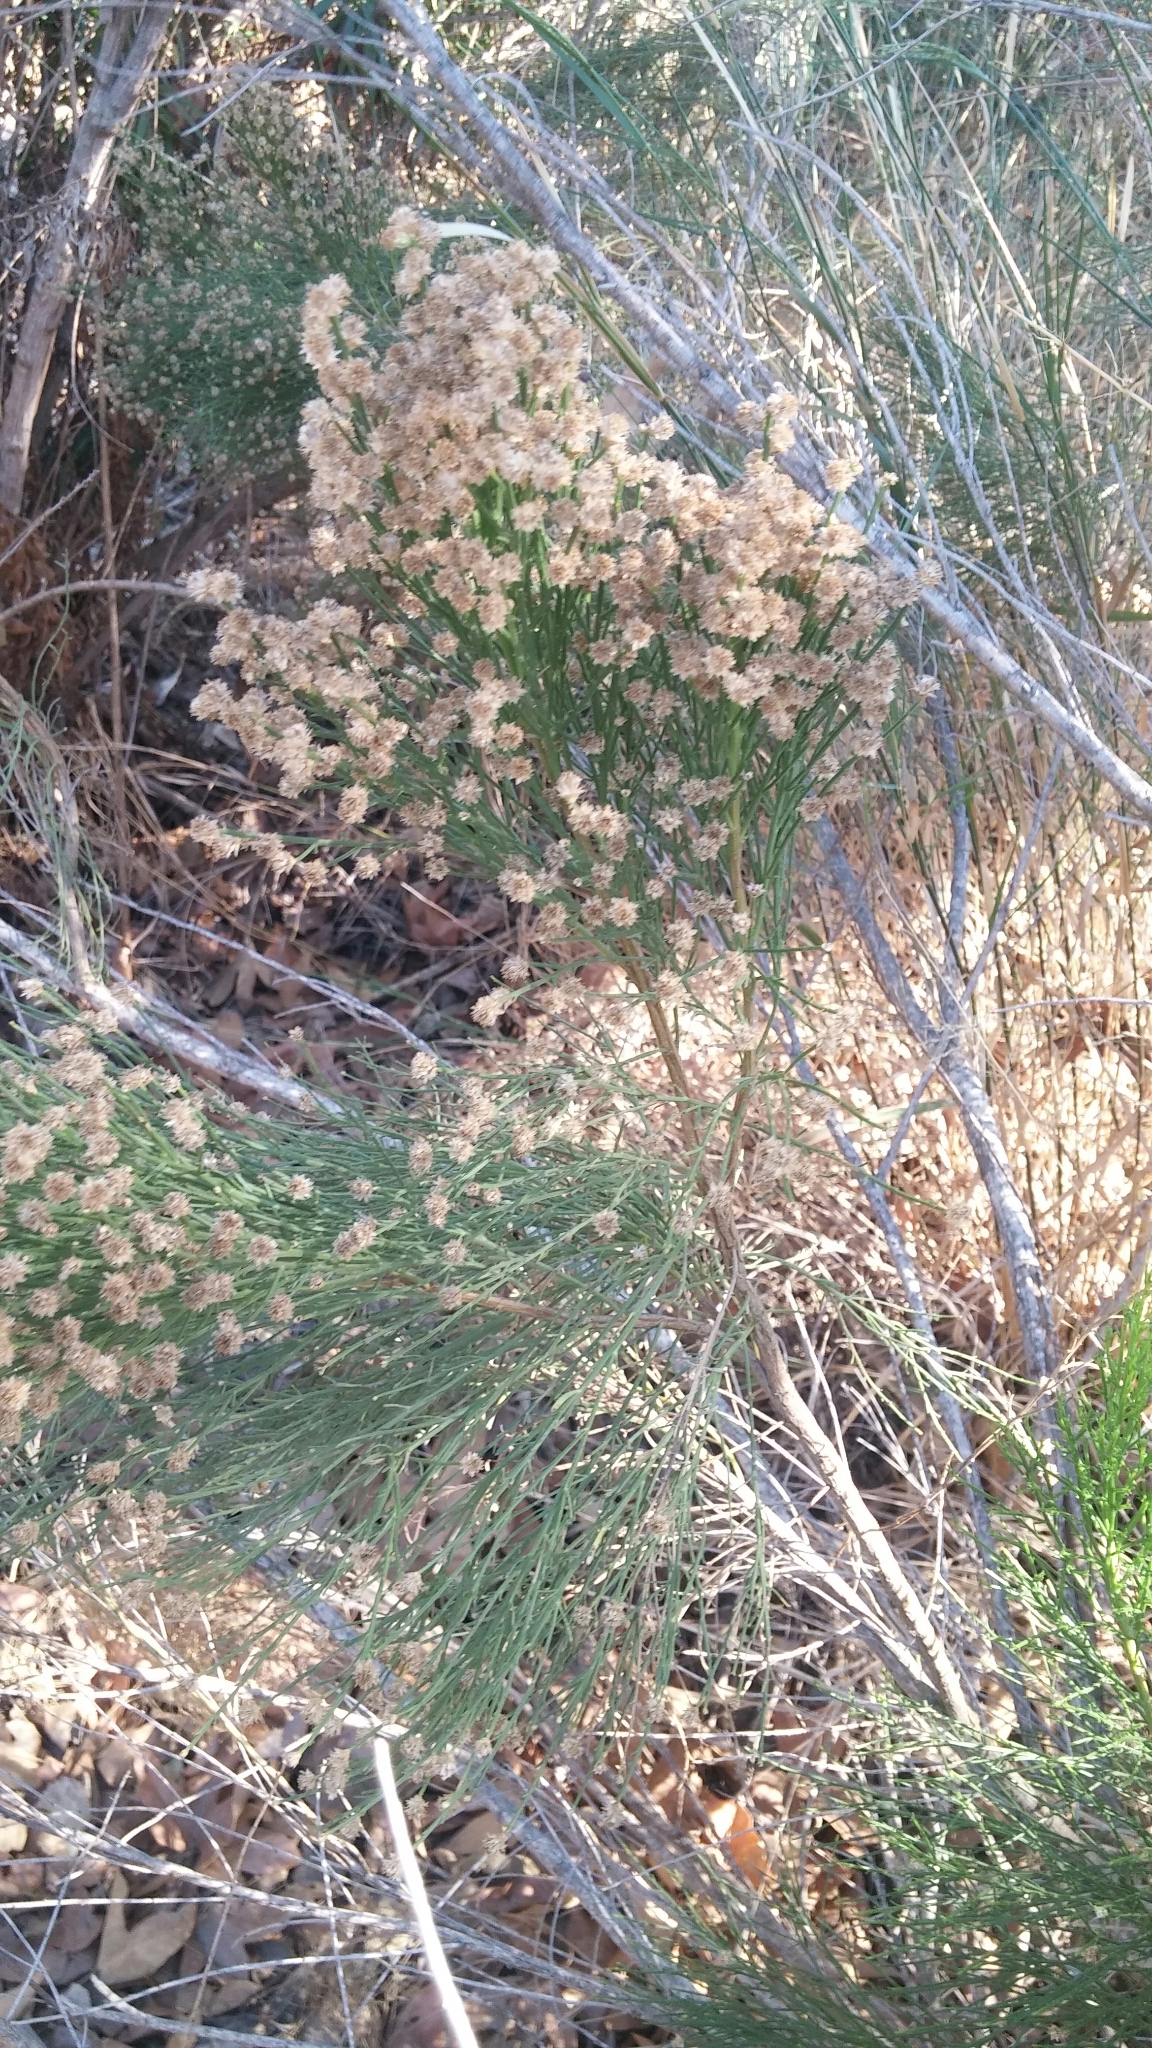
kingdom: Plantae
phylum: Tracheophyta
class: Magnoliopsida
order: Asterales
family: Asteraceae
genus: Baccharis
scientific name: Baccharis sarothroides
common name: Desert-broom
